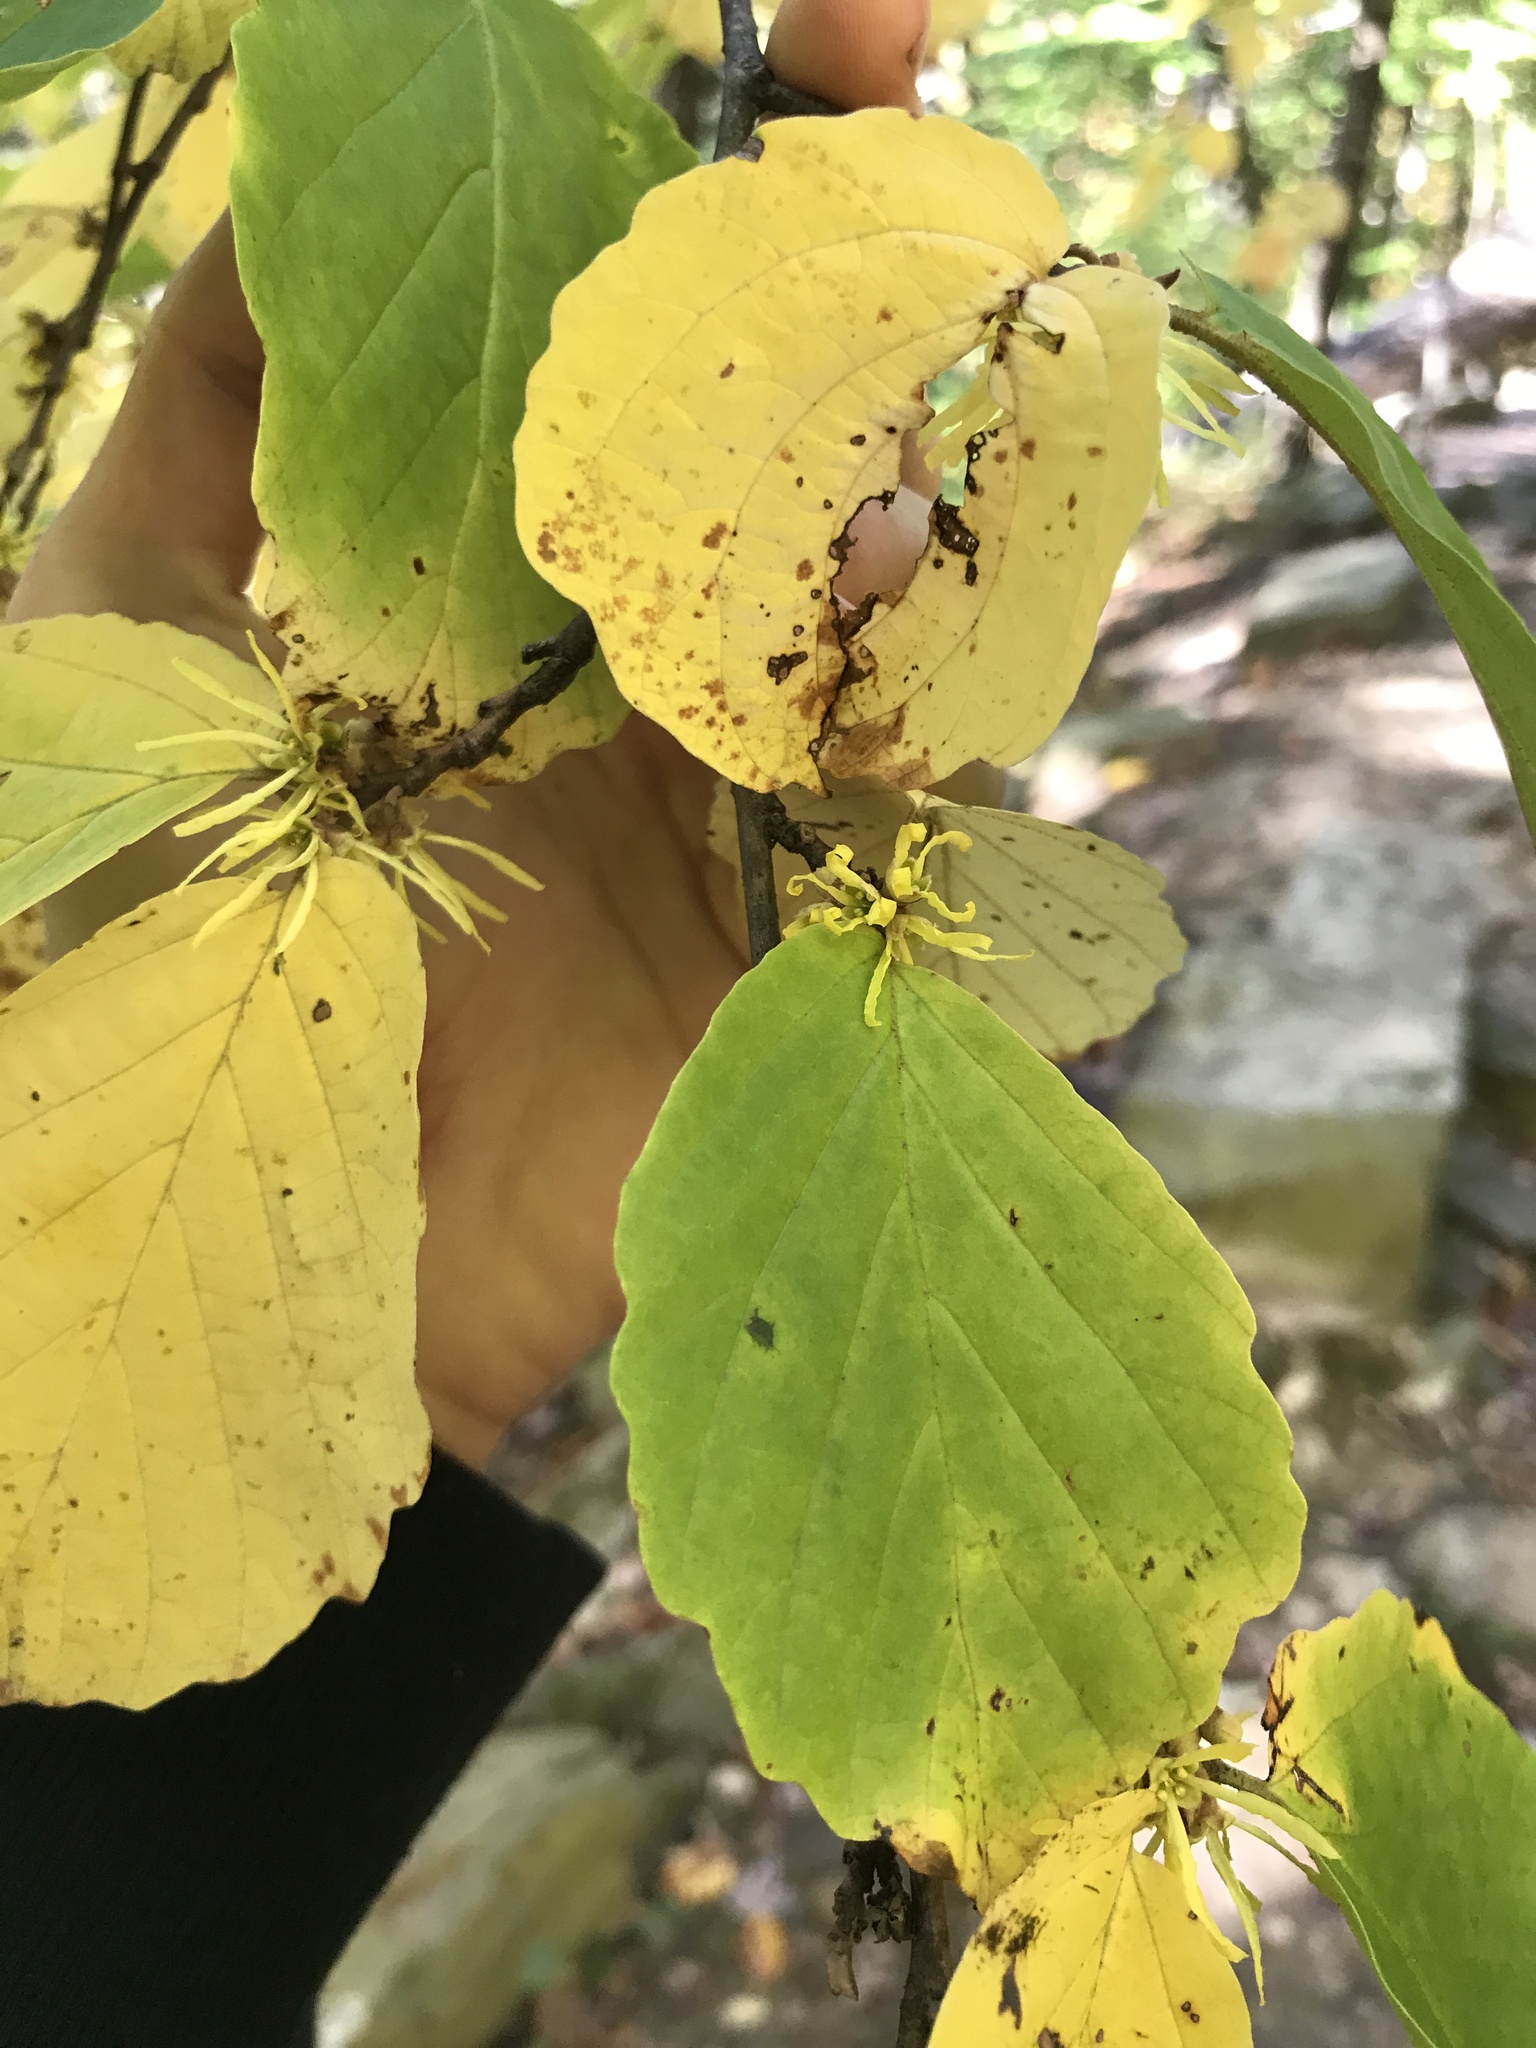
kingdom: Plantae
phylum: Tracheophyta
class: Magnoliopsida
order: Saxifragales
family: Hamamelidaceae
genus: Hamamelis
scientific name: Hamamelis virginiana
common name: Witch-hazel
